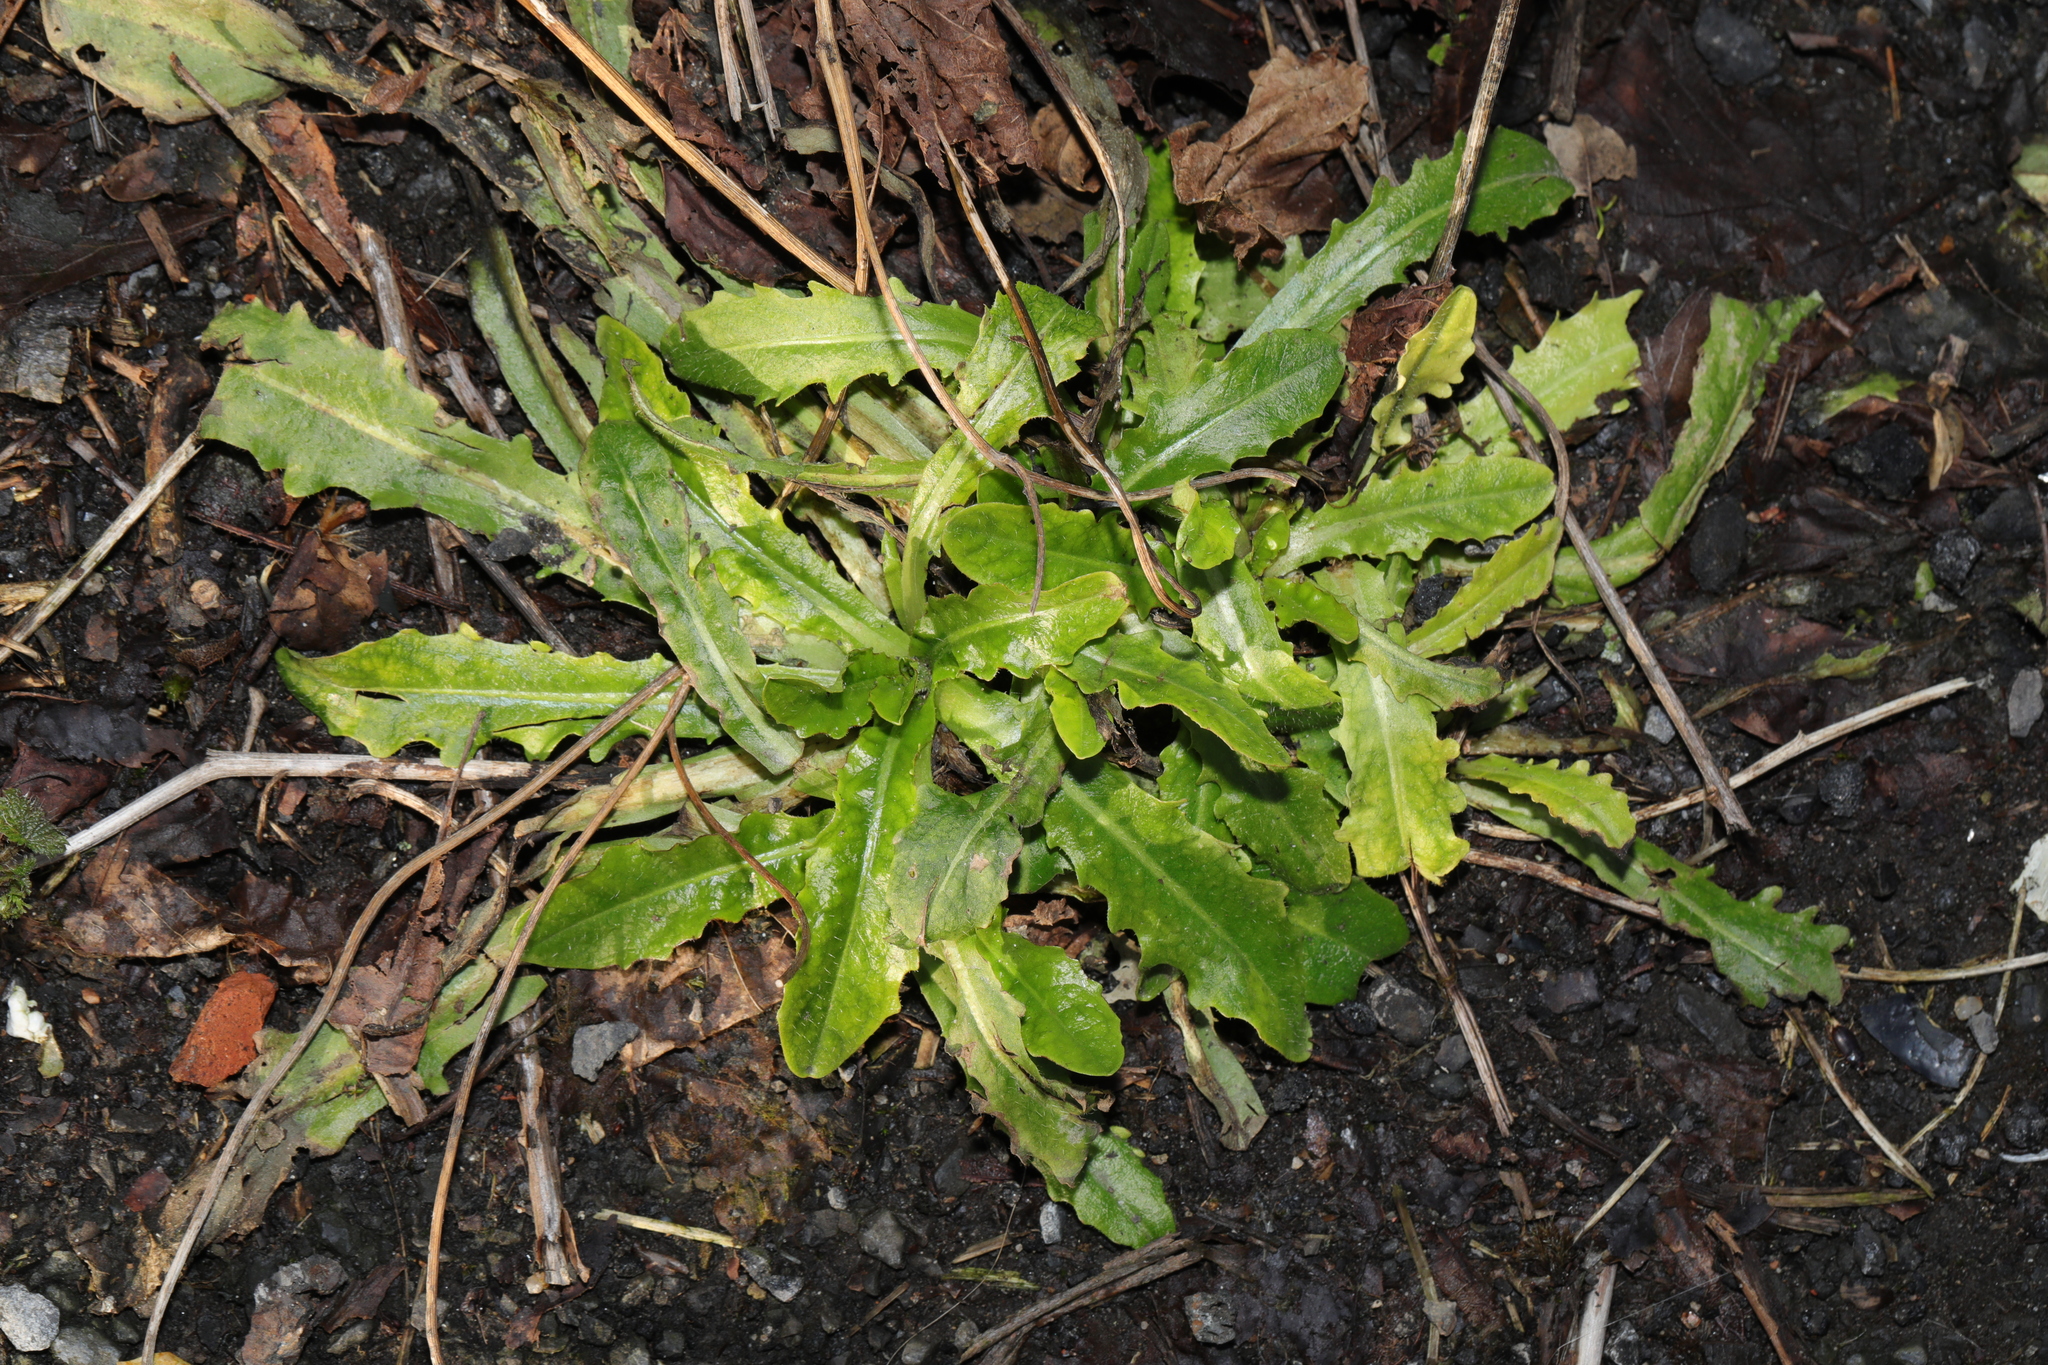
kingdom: Plantae
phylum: Tracheophyta
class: Magnoliopsida
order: Asterales
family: Asteraceae
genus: Hypochaeris
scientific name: Hypochaeris radicata
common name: Flatweed
